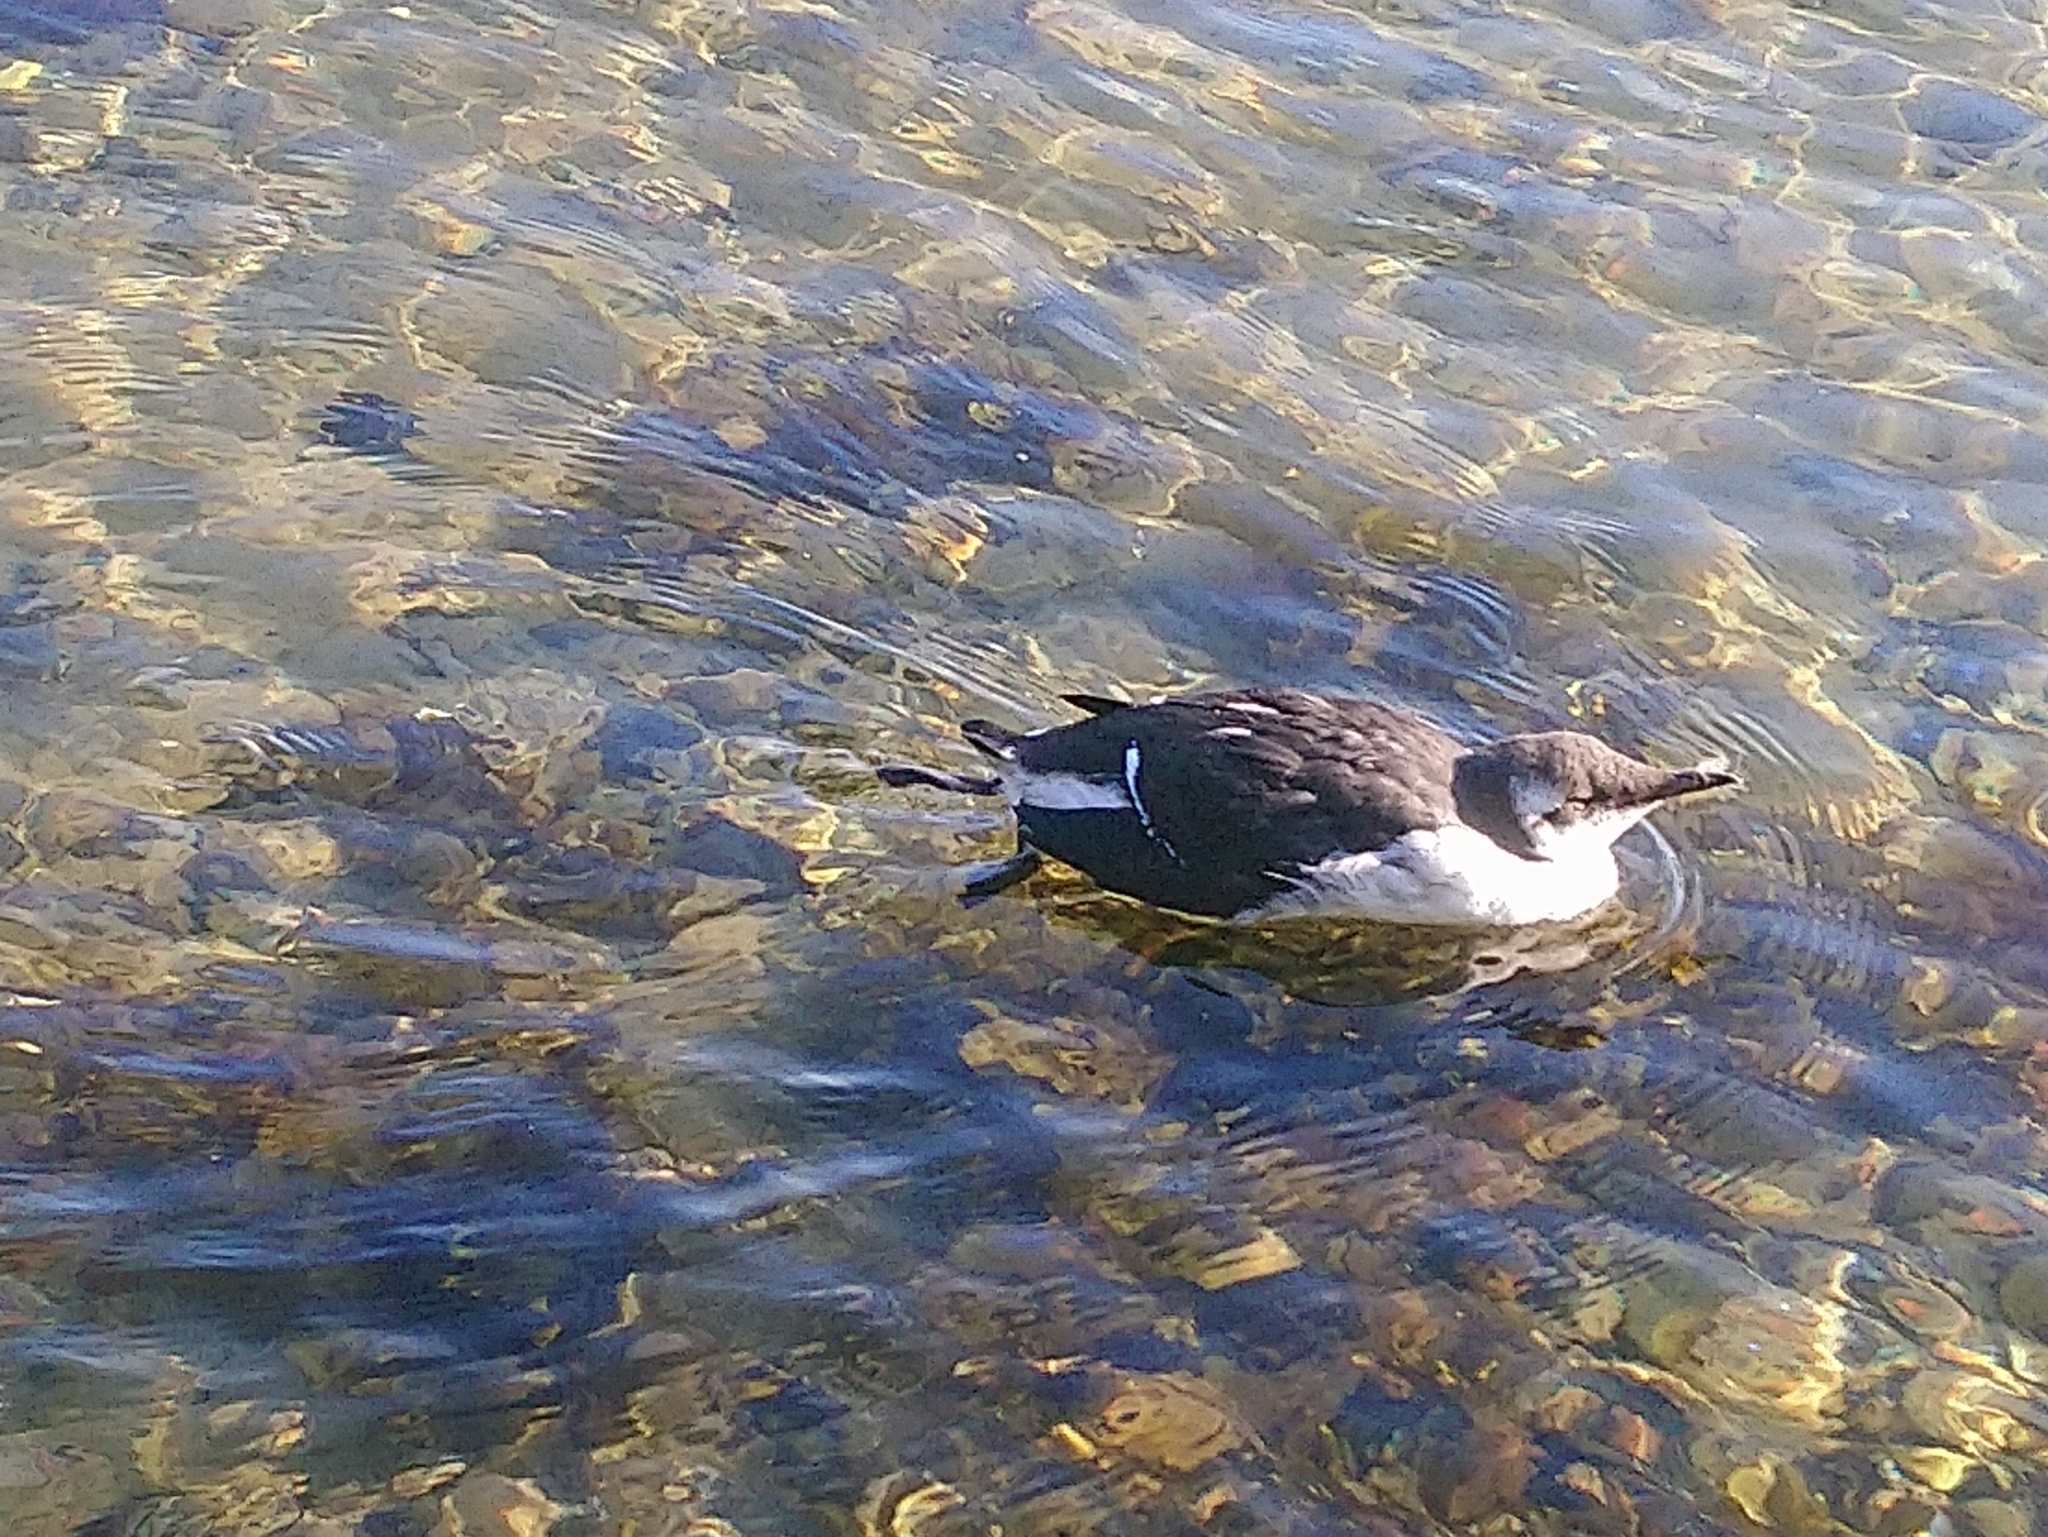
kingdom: Animalia
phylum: Chordata
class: Aves
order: Charadriiformes
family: Alcidae
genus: Uria
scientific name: Uria aalge
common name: Common murre
